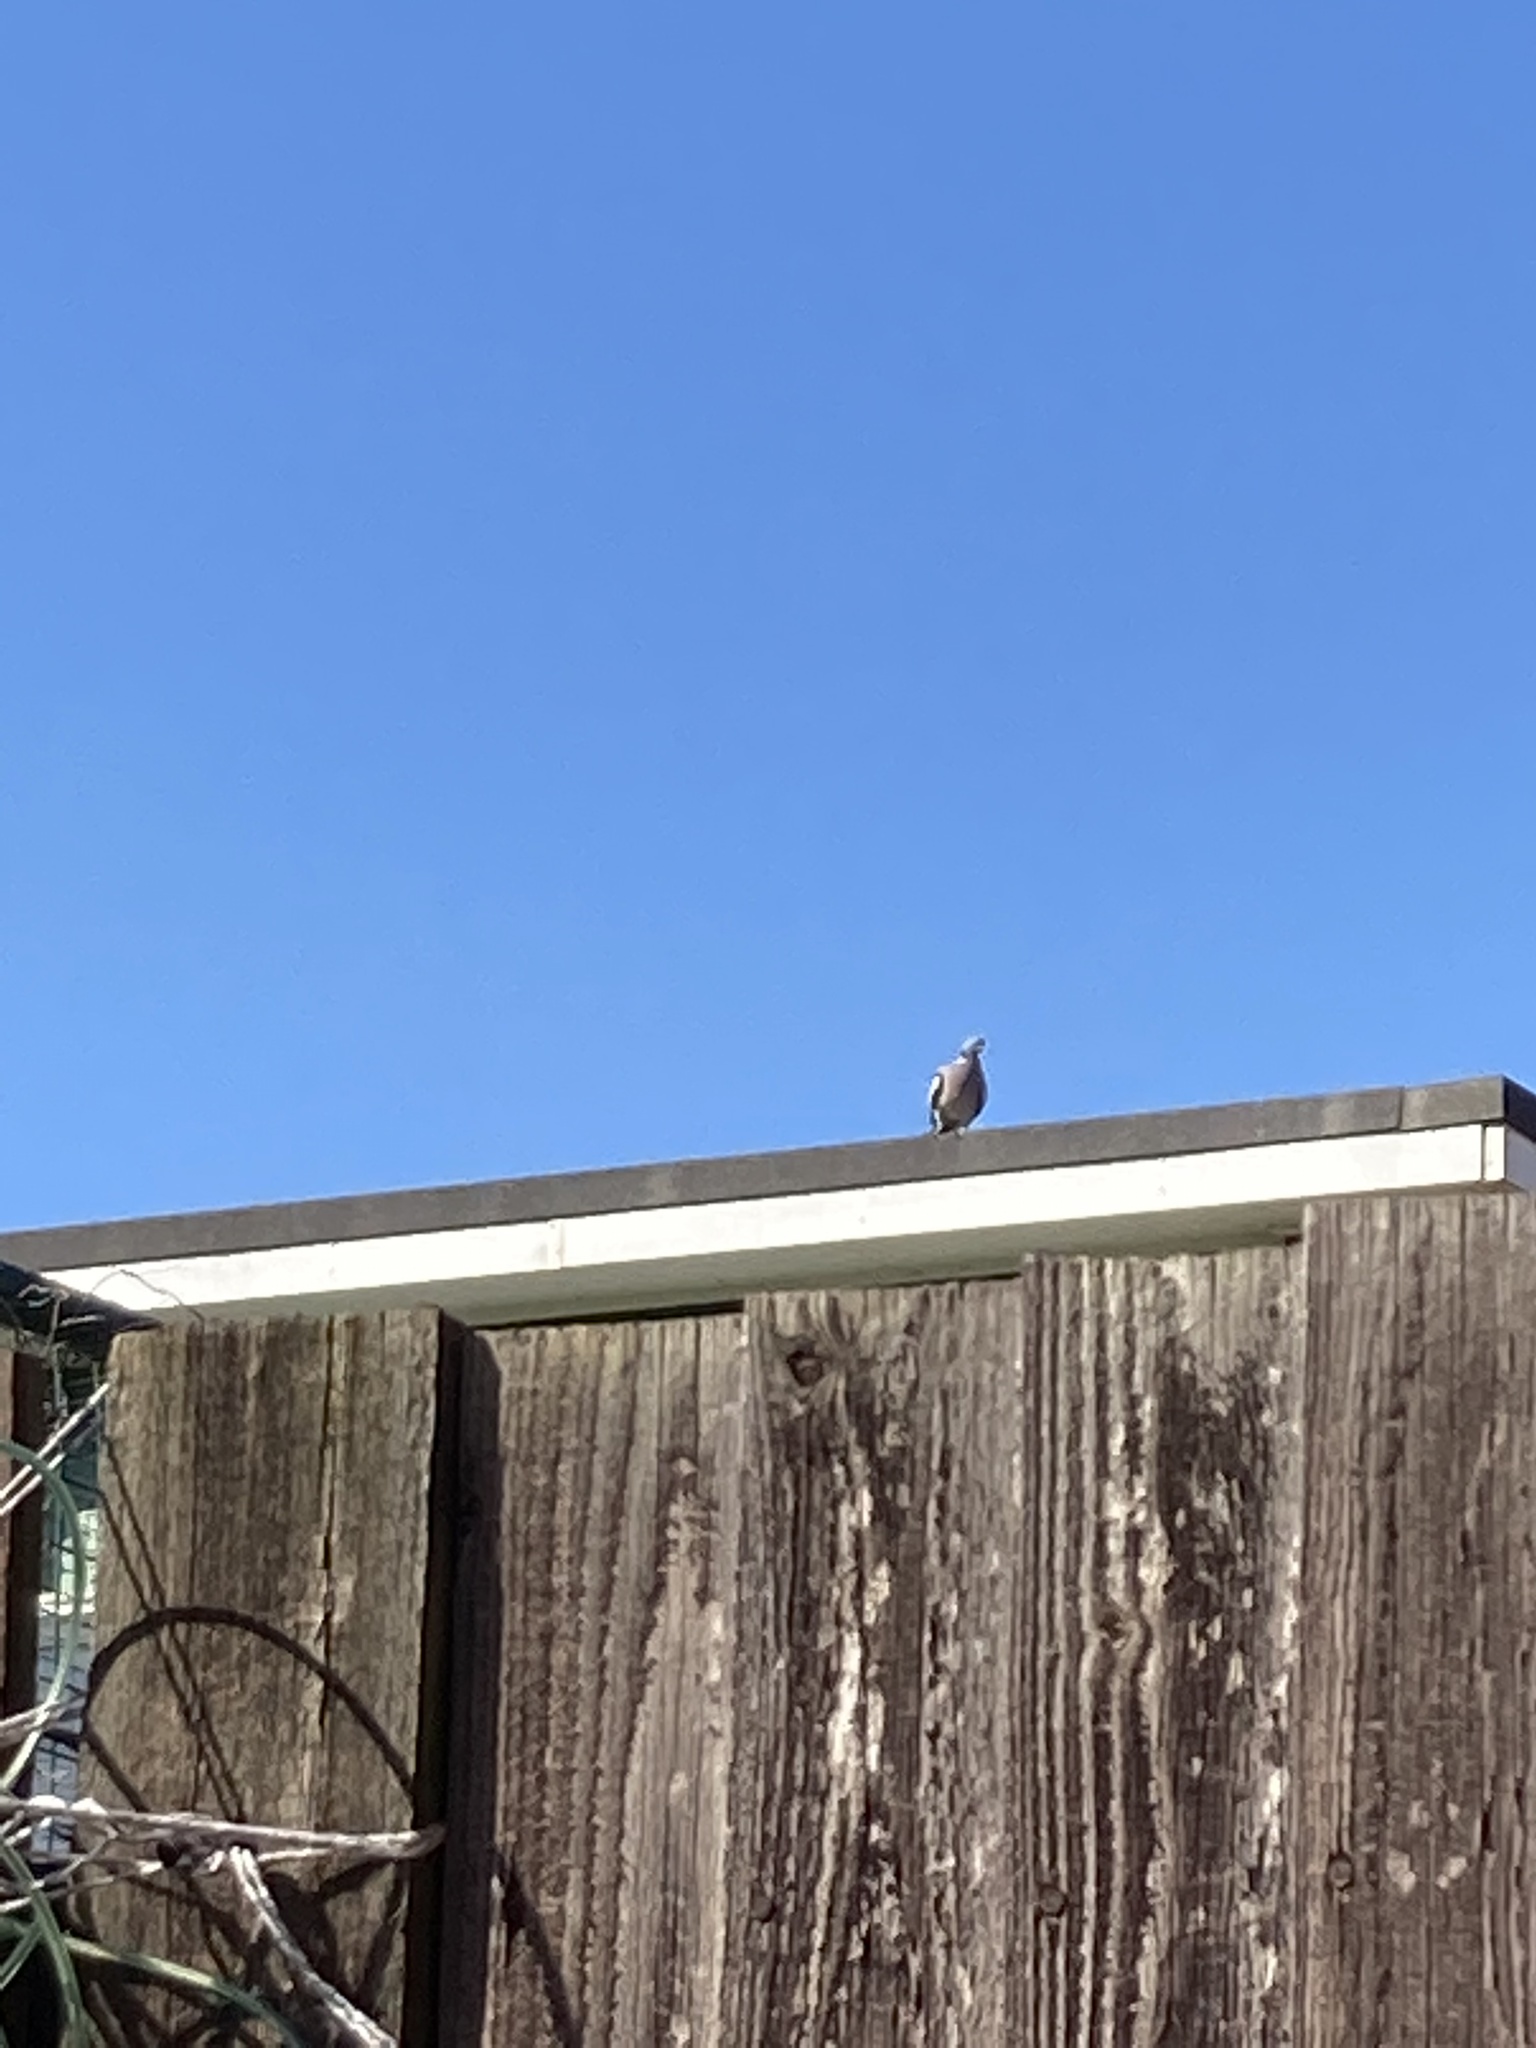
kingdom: Animalia
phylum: Chordata
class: Aves
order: Columbiformes
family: Columbidae
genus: Columba
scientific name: Columba palumbus
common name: Common wood pigeon
